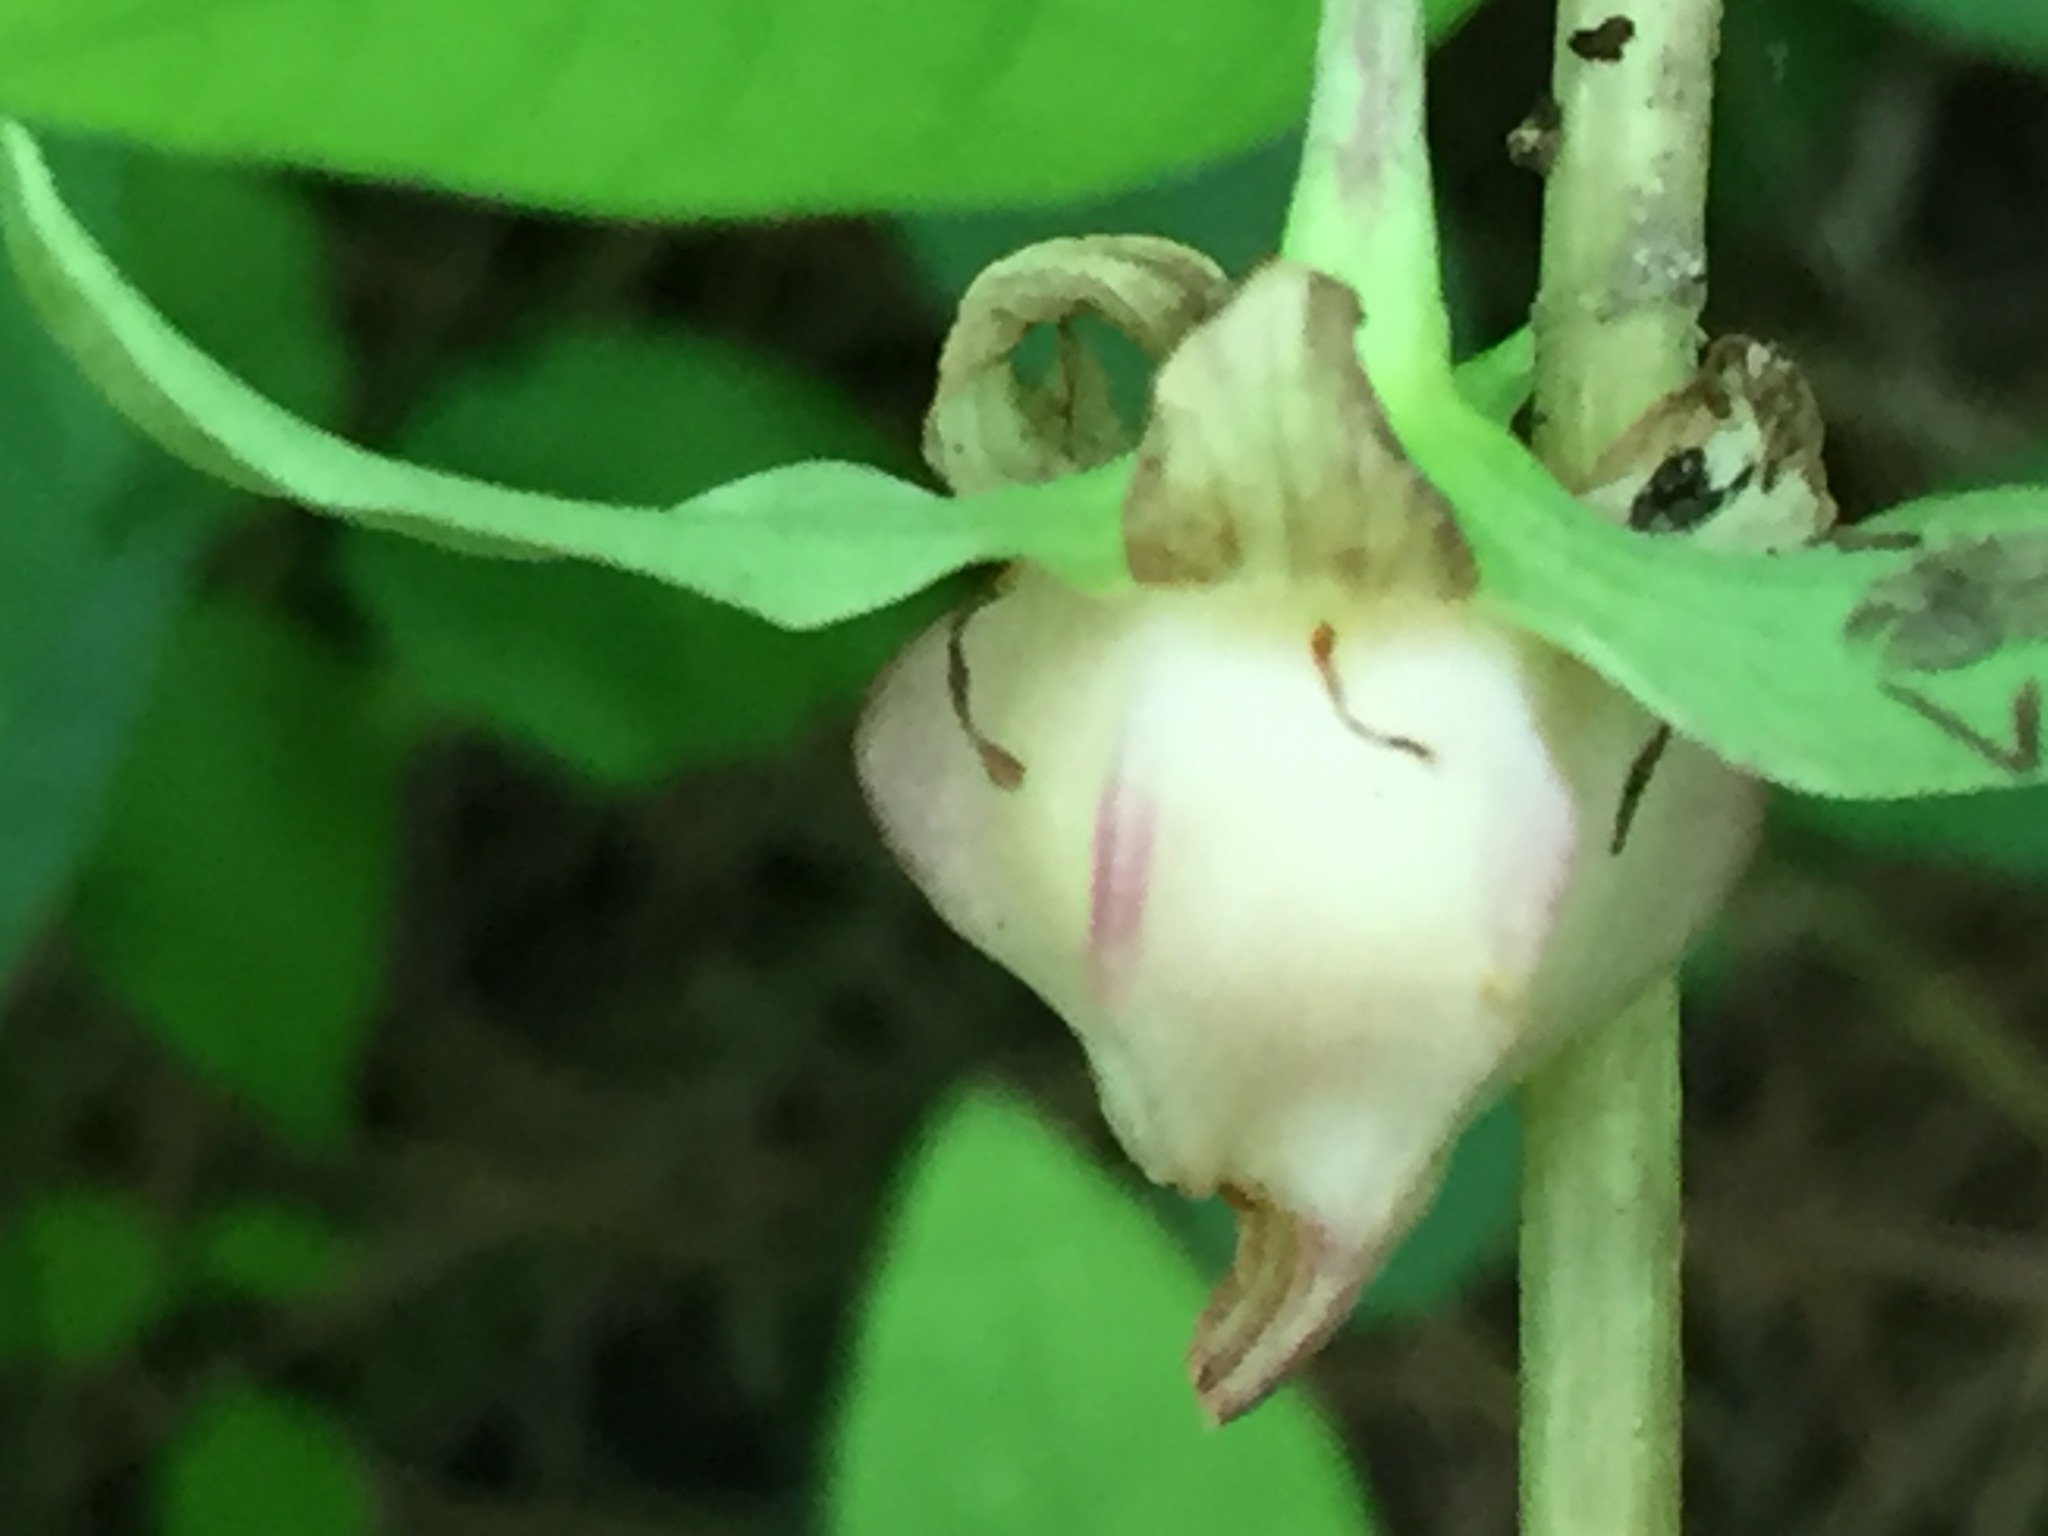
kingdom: Plantae
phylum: Tracheophyta
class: Liliopsida
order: Liliales
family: Melanthiaceae
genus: Trillium
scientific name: Trillium cernuum
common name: Nodding trillium
